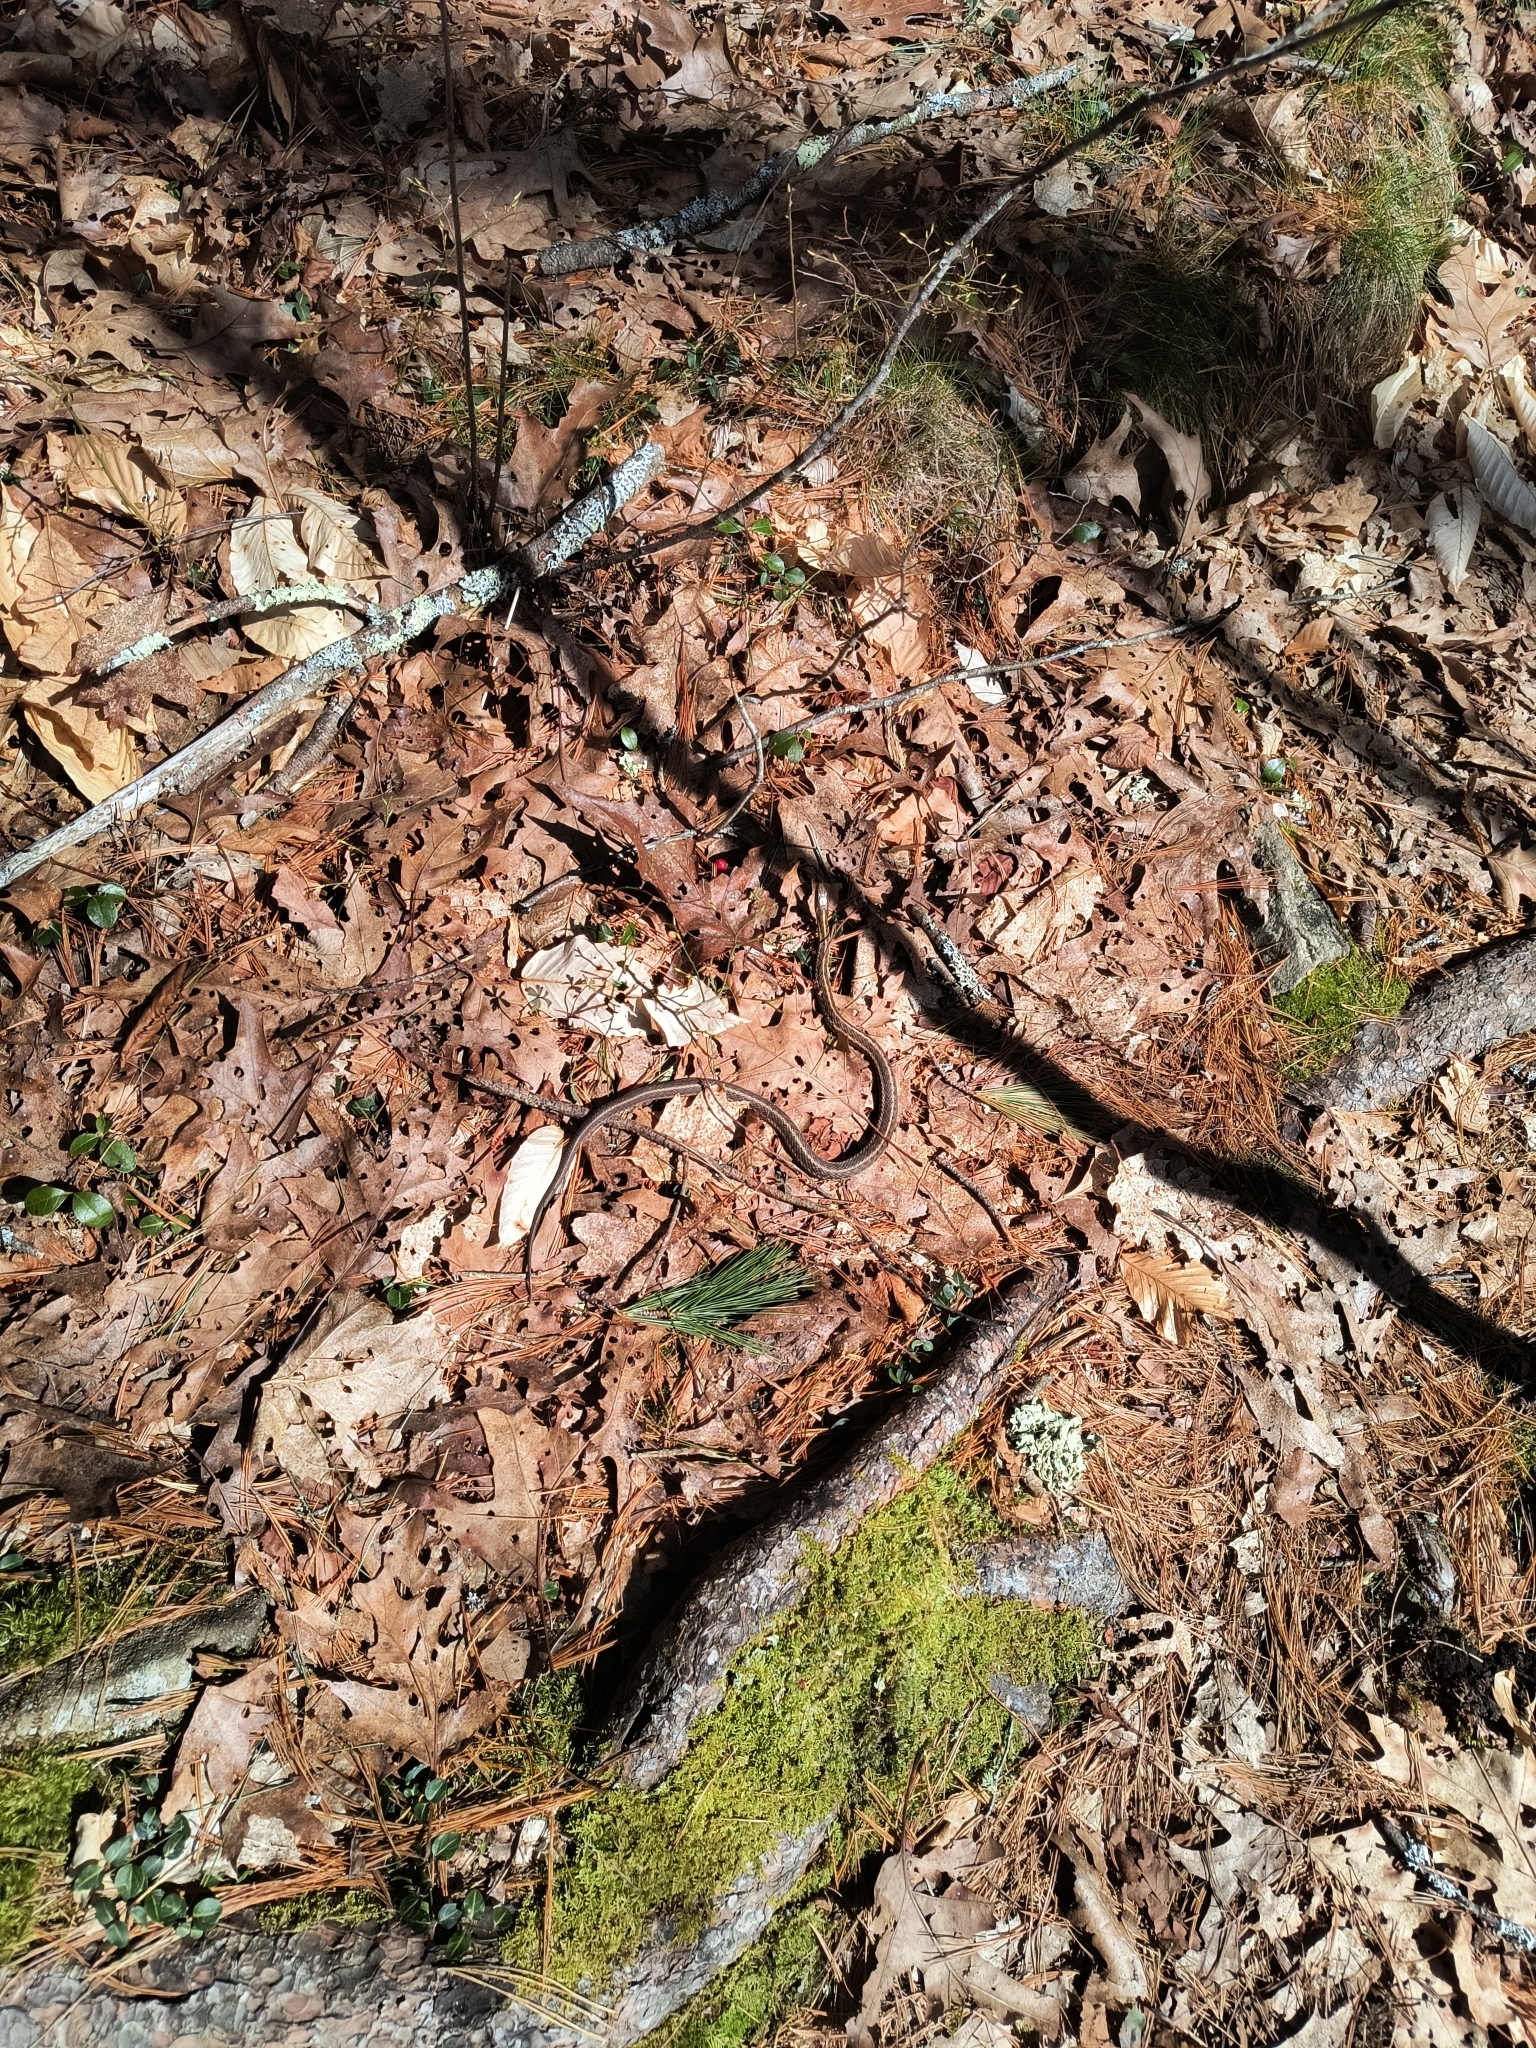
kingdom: Animalia
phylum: Chordata
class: Squamata
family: Colubridae
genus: Thamnophis
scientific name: Thamnophis sirtalis
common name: Common garter snake
